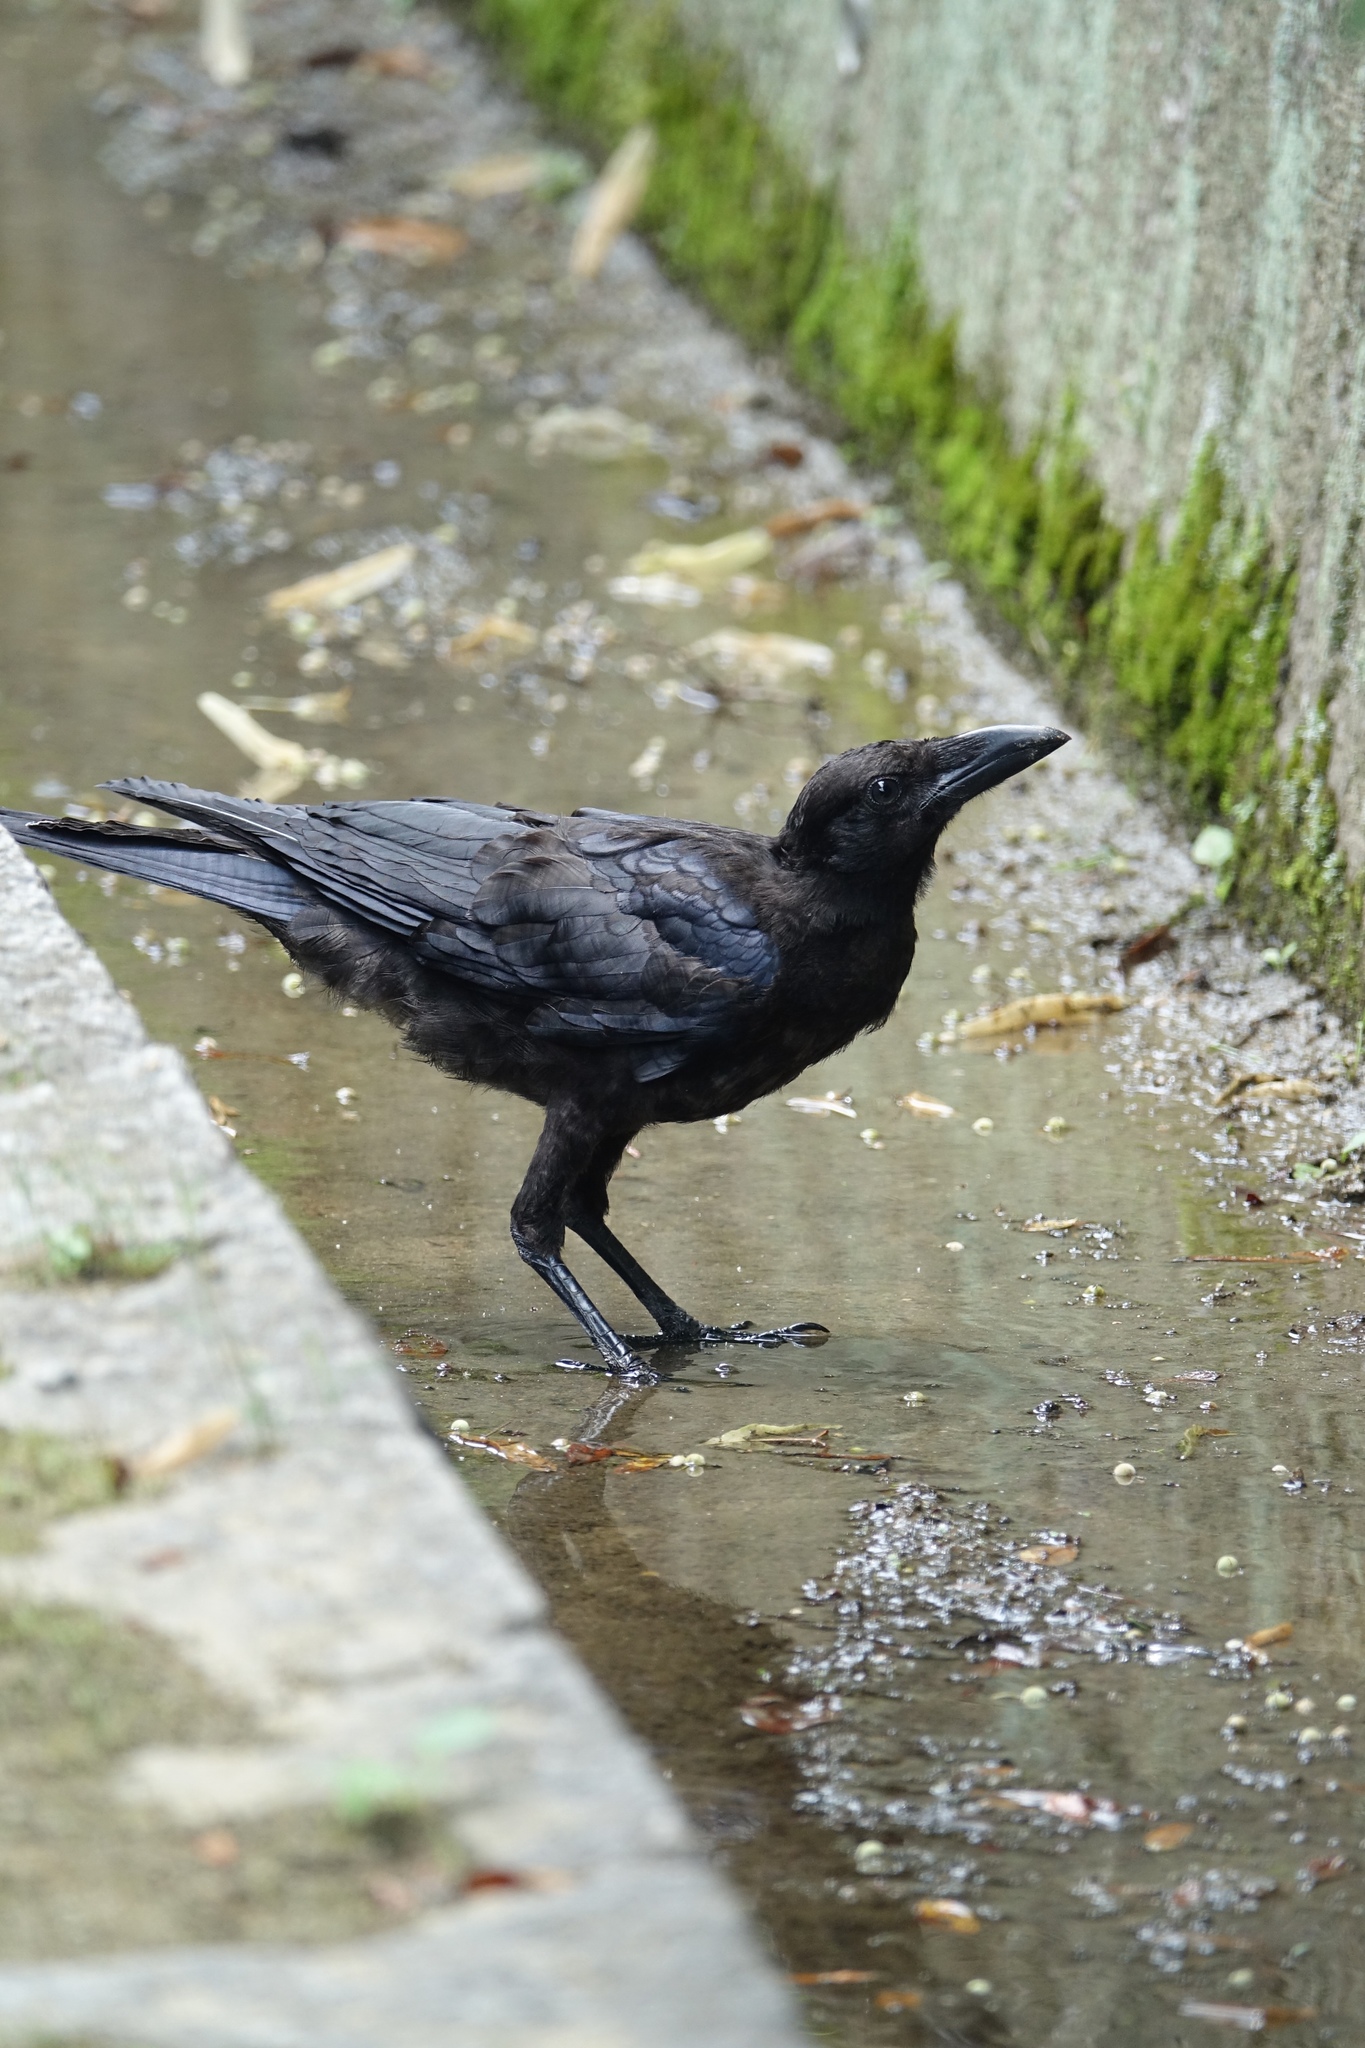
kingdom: Animalia
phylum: Chordata
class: Aves
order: Passeriformes
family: Corvidae
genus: Corvus
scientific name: Corvus macrorhynchos
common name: Large-billed crow
